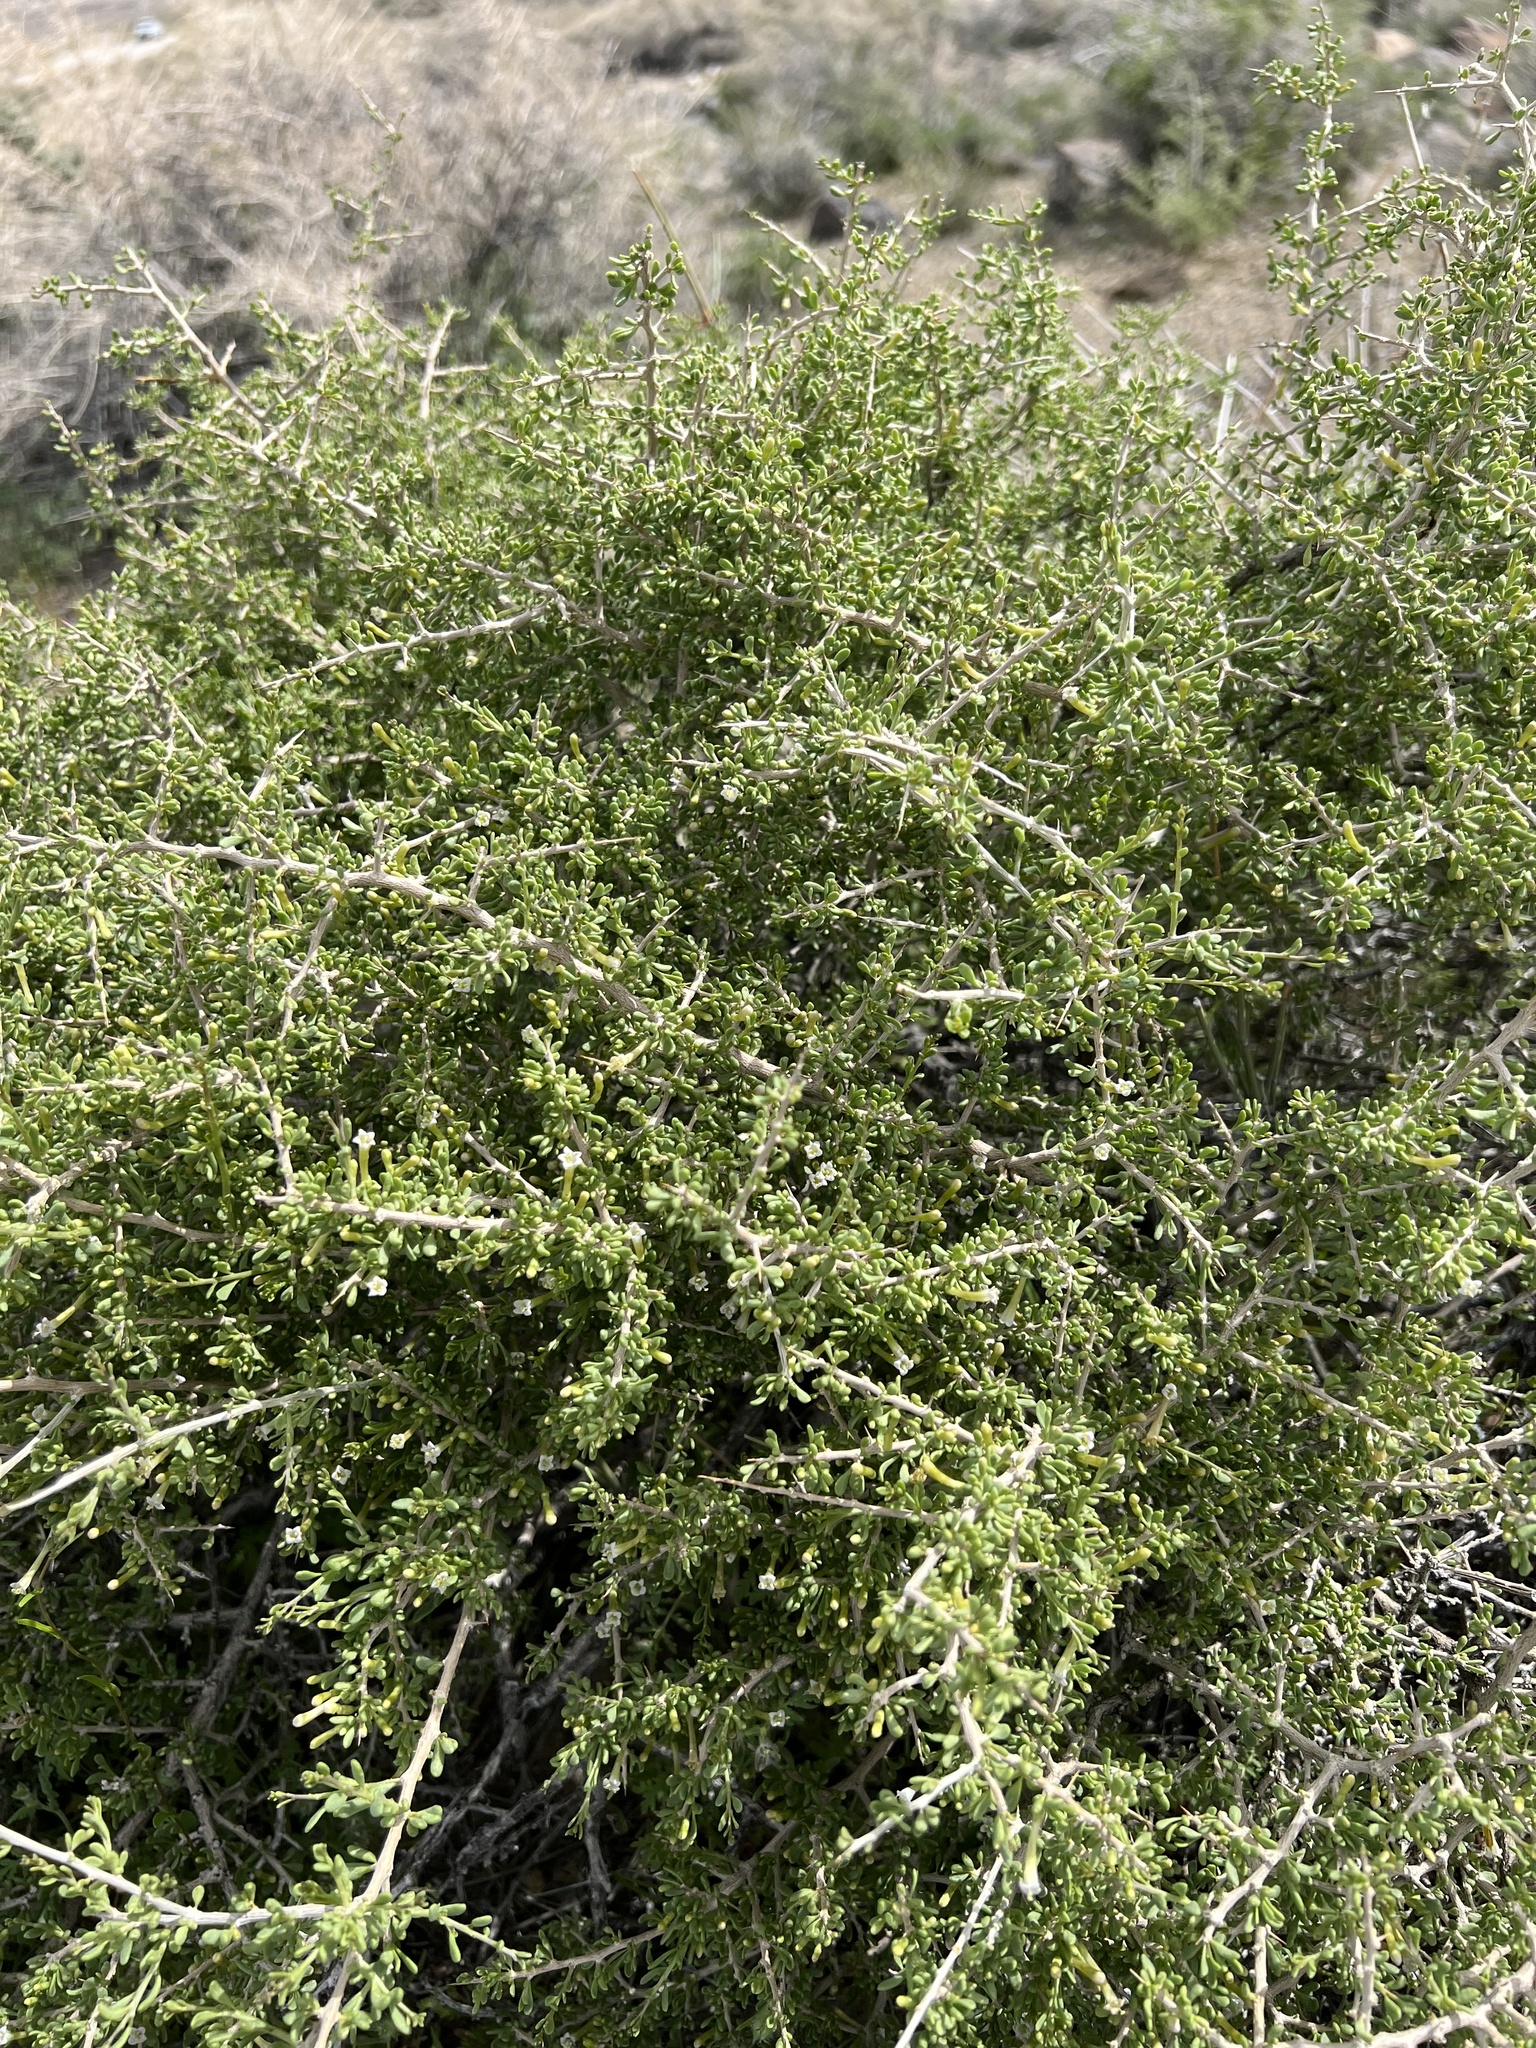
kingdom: Plantae
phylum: Tracheophyta
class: Magnoliopsida
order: Solanales
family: Solanaceae
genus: Lycium
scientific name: Lycium andersonii
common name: Water-jacket
